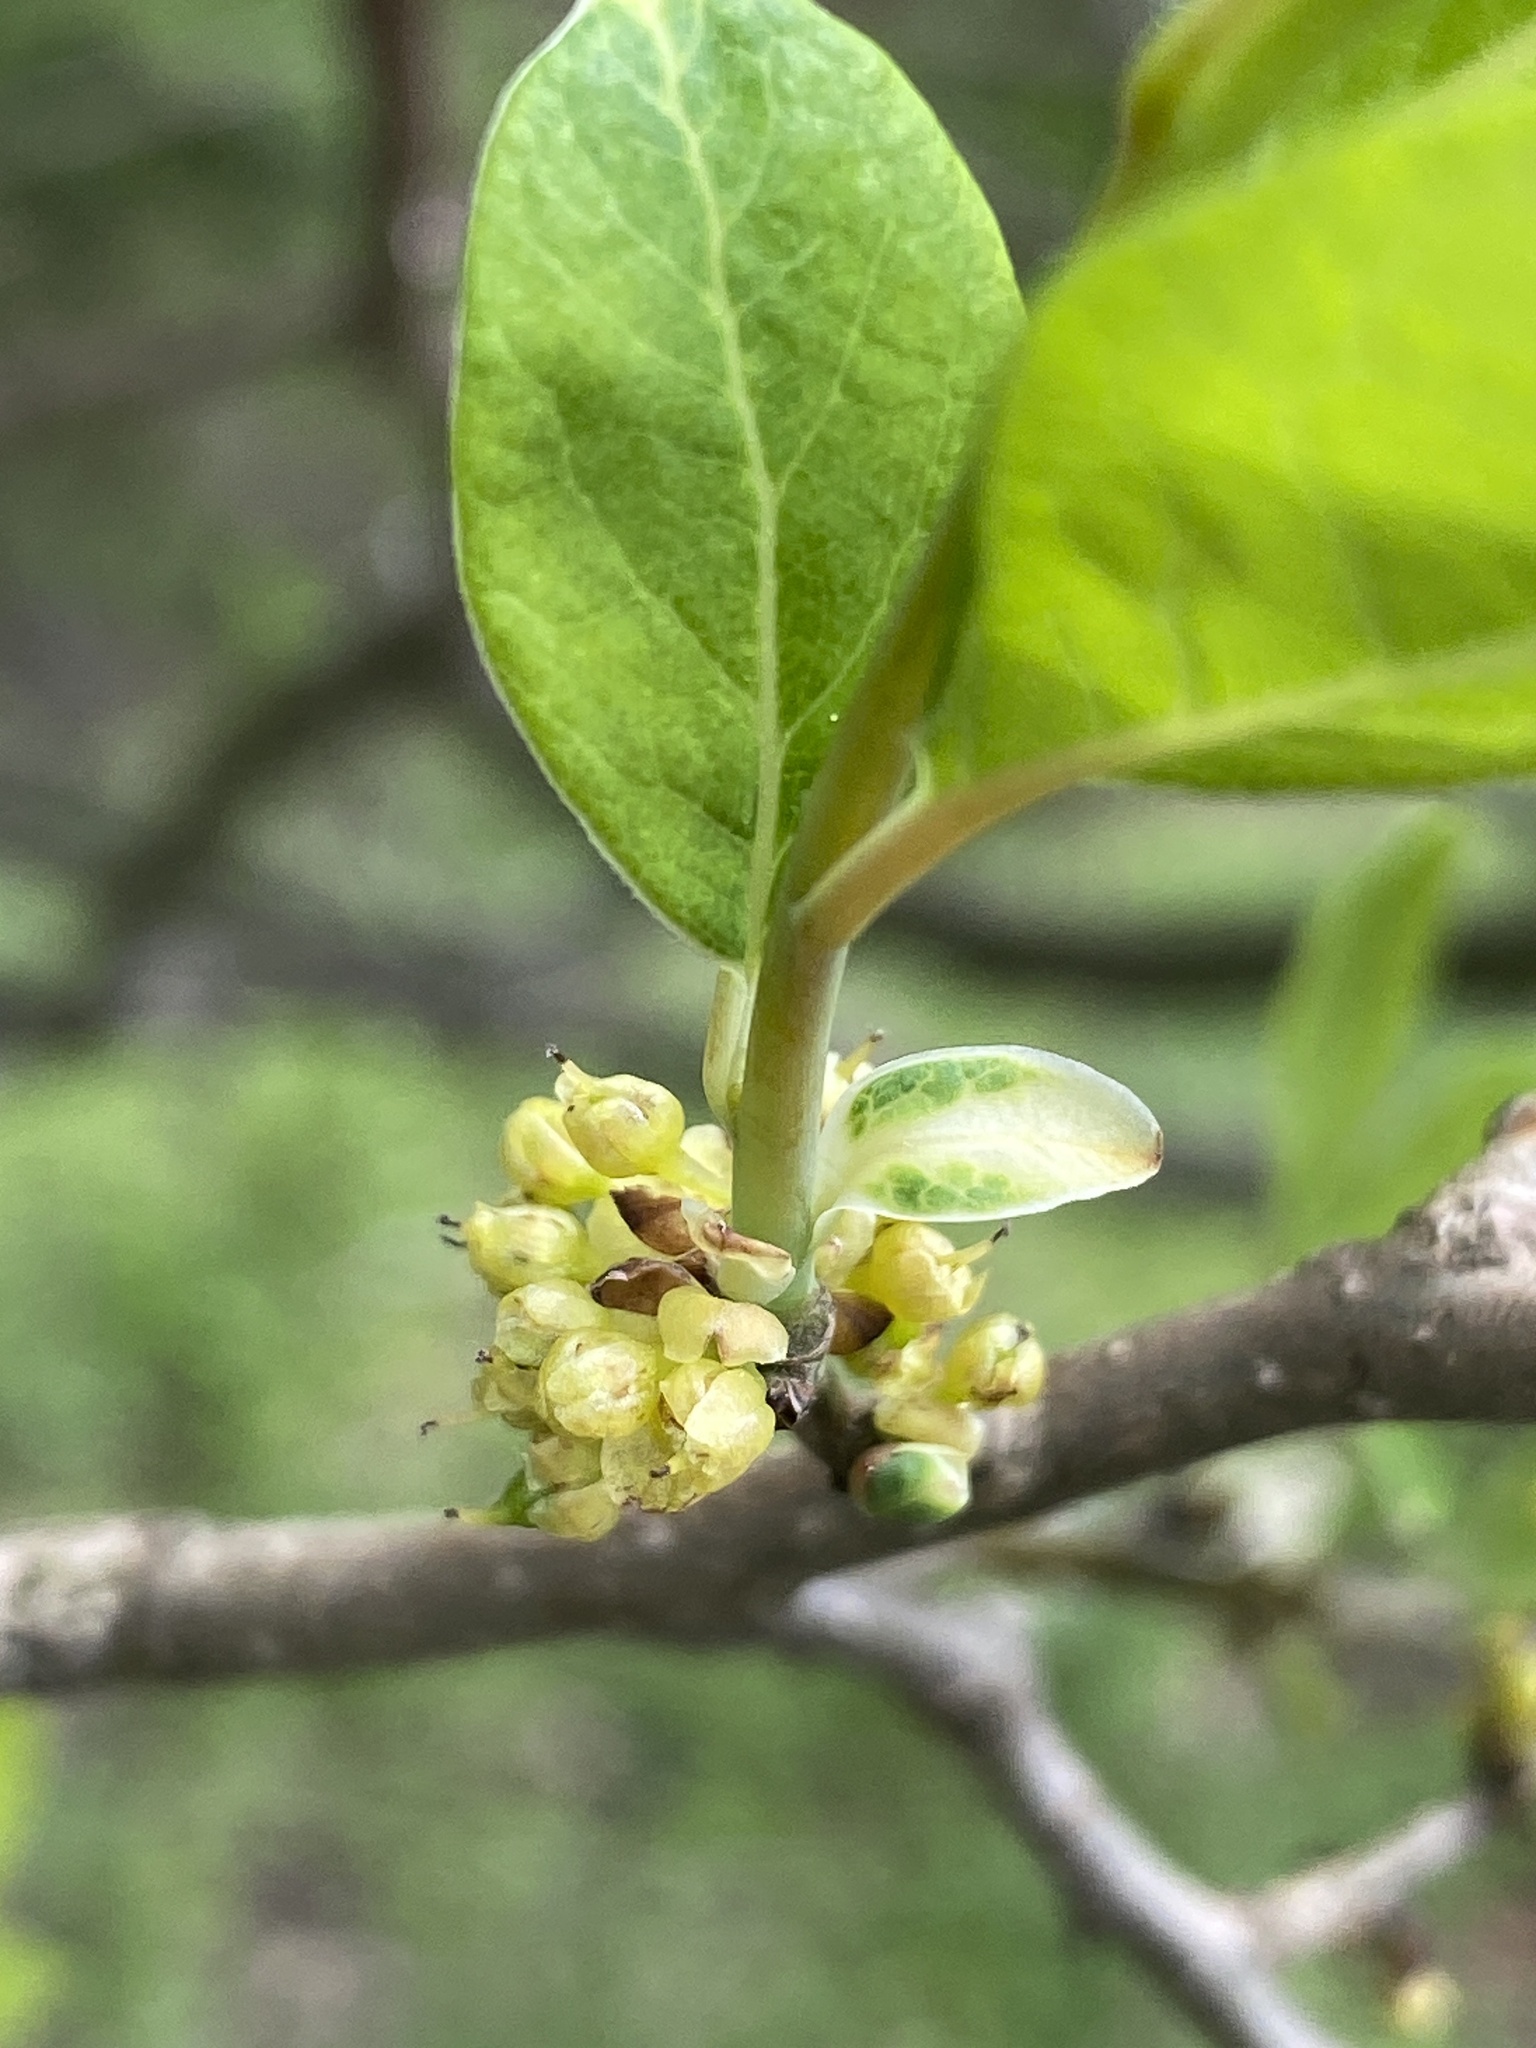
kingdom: Plantae
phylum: Tracheophyta
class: Magnoliopsida
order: Laurales
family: Lauraceae
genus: Lindera
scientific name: Lindera benzoin
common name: Spicebush
